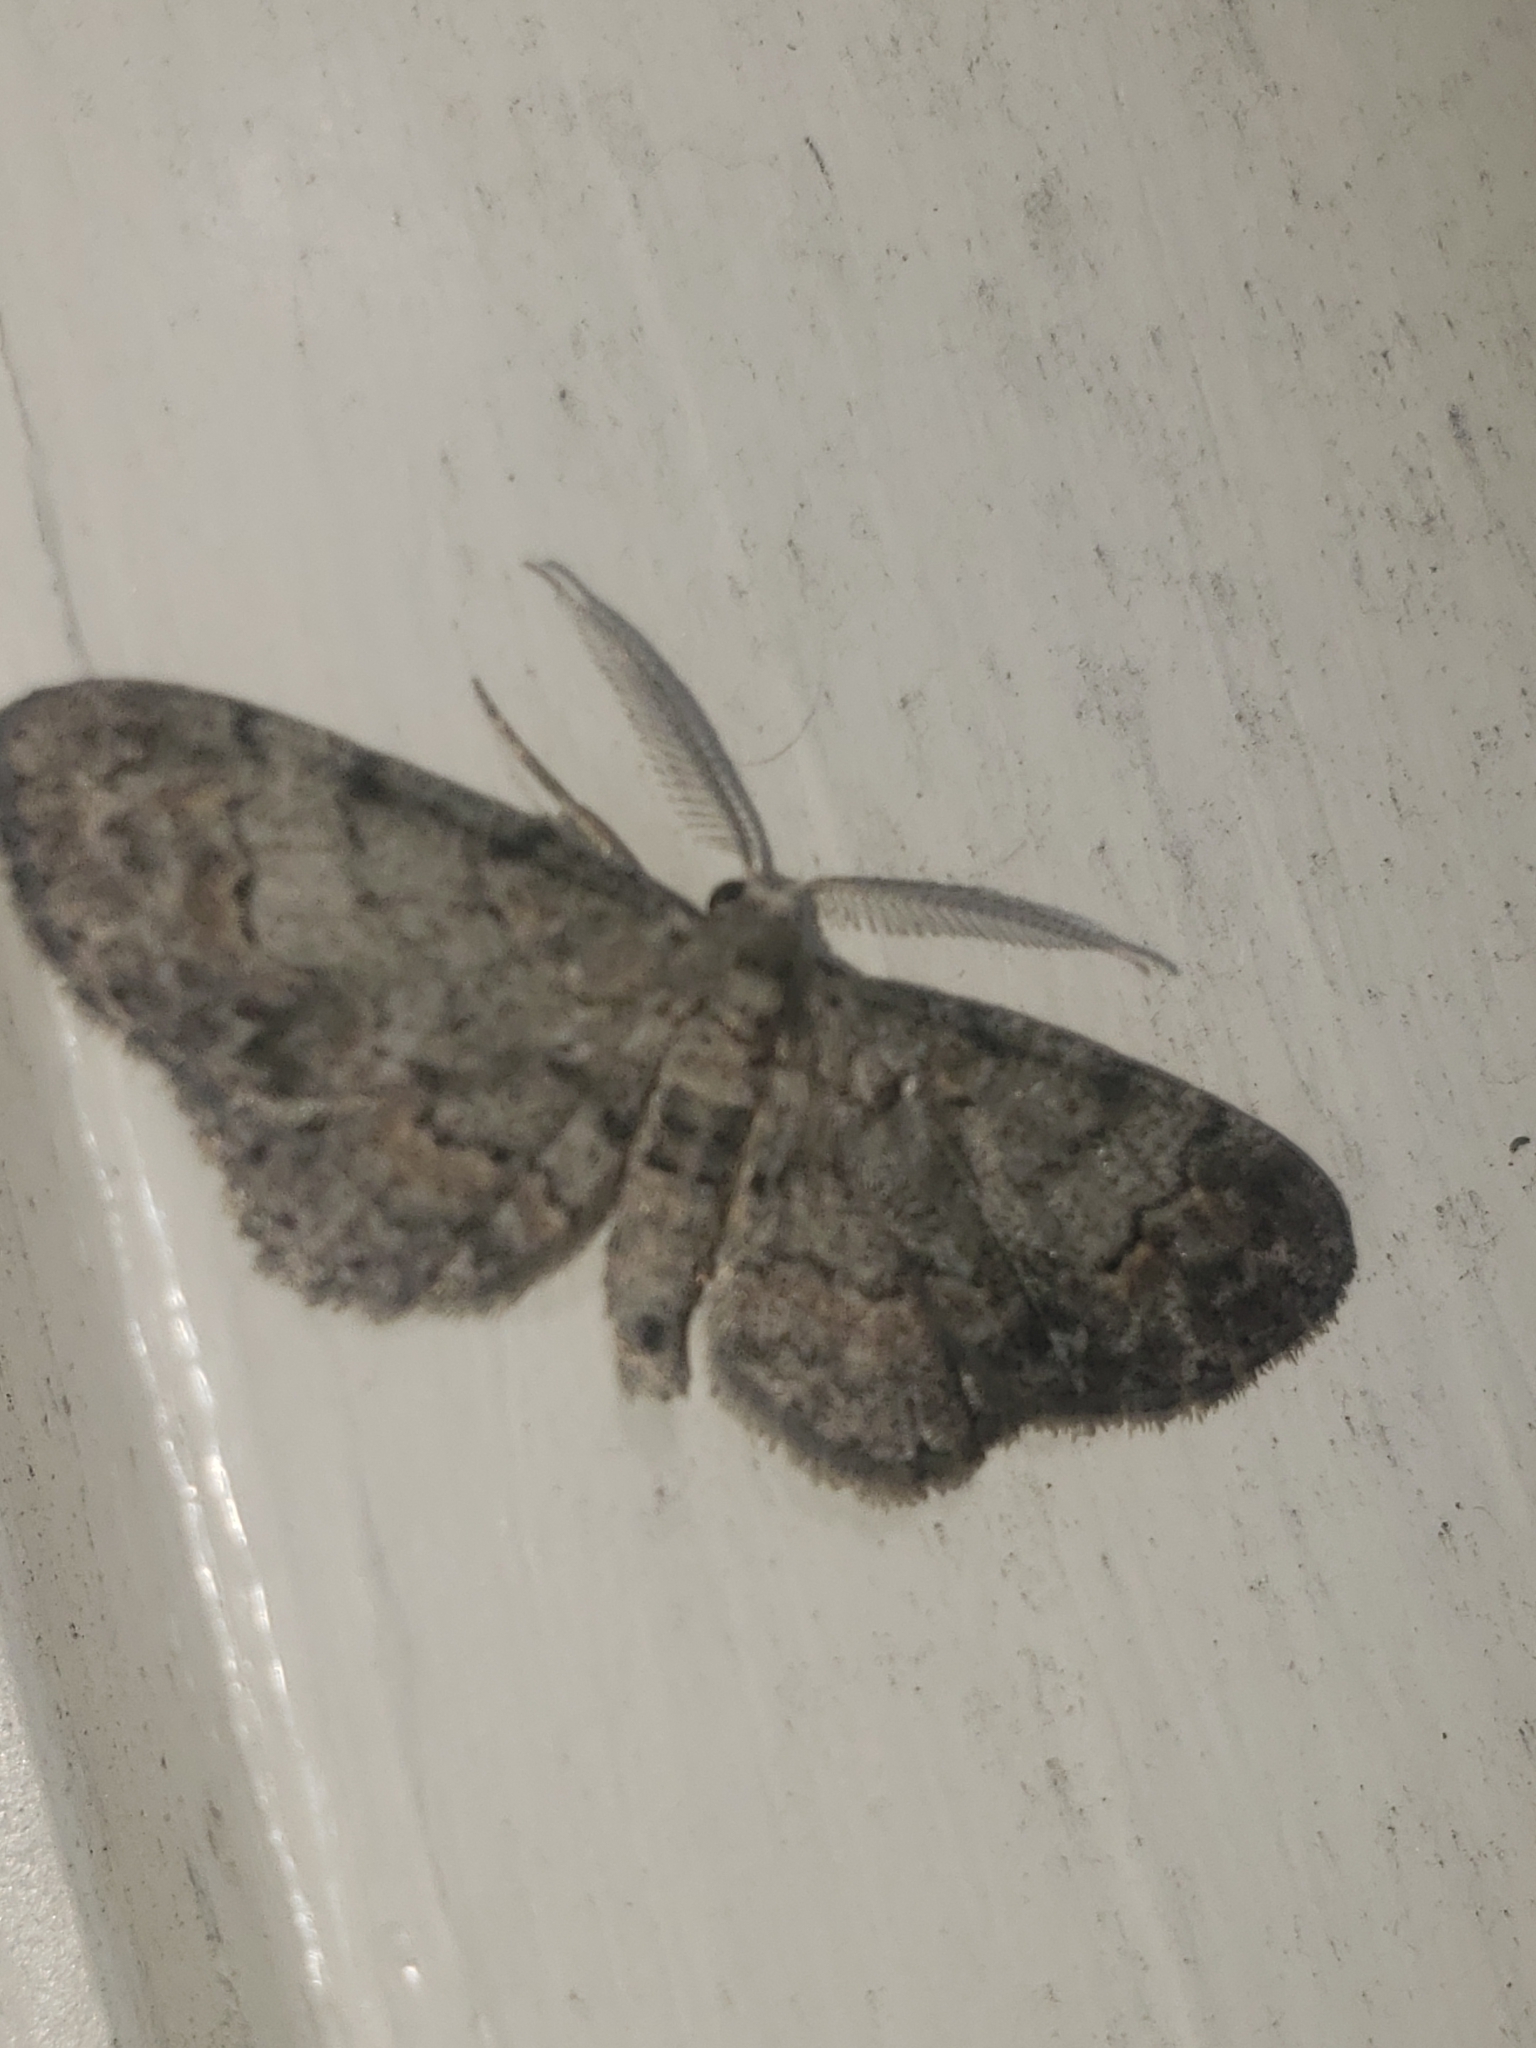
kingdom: Animalia
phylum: Arthropoda
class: Insecta
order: Lepidoptera
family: Geometridae
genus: Glenoides
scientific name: Glenoides texanaria
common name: Texas gray
